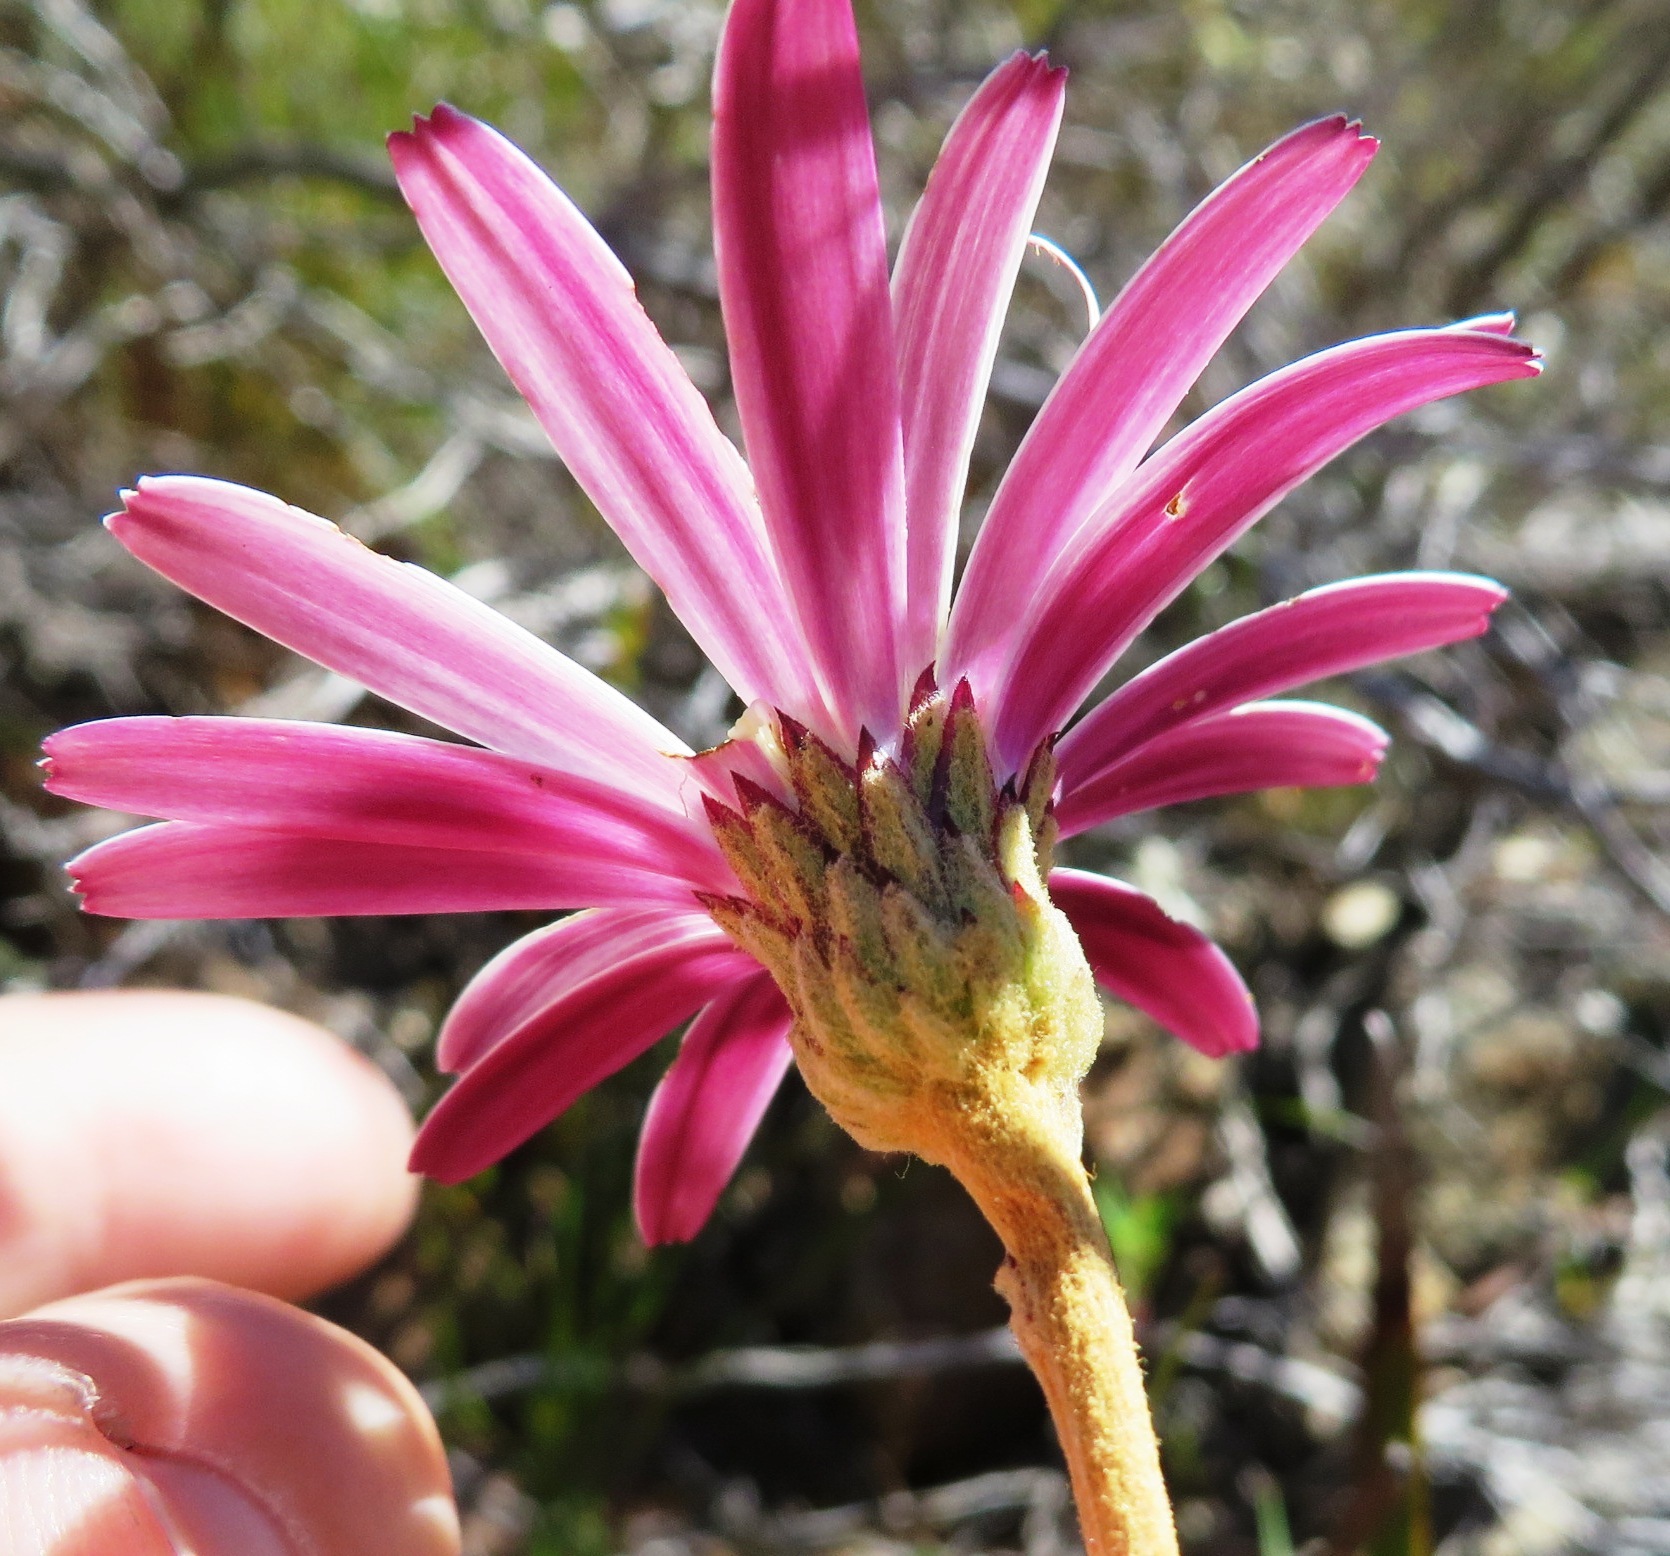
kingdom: Plantae
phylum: Tracheophyta
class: Magnoliopsida
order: Asterales
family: Asteraceae
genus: Gerbera
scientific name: Gerbera crocea
